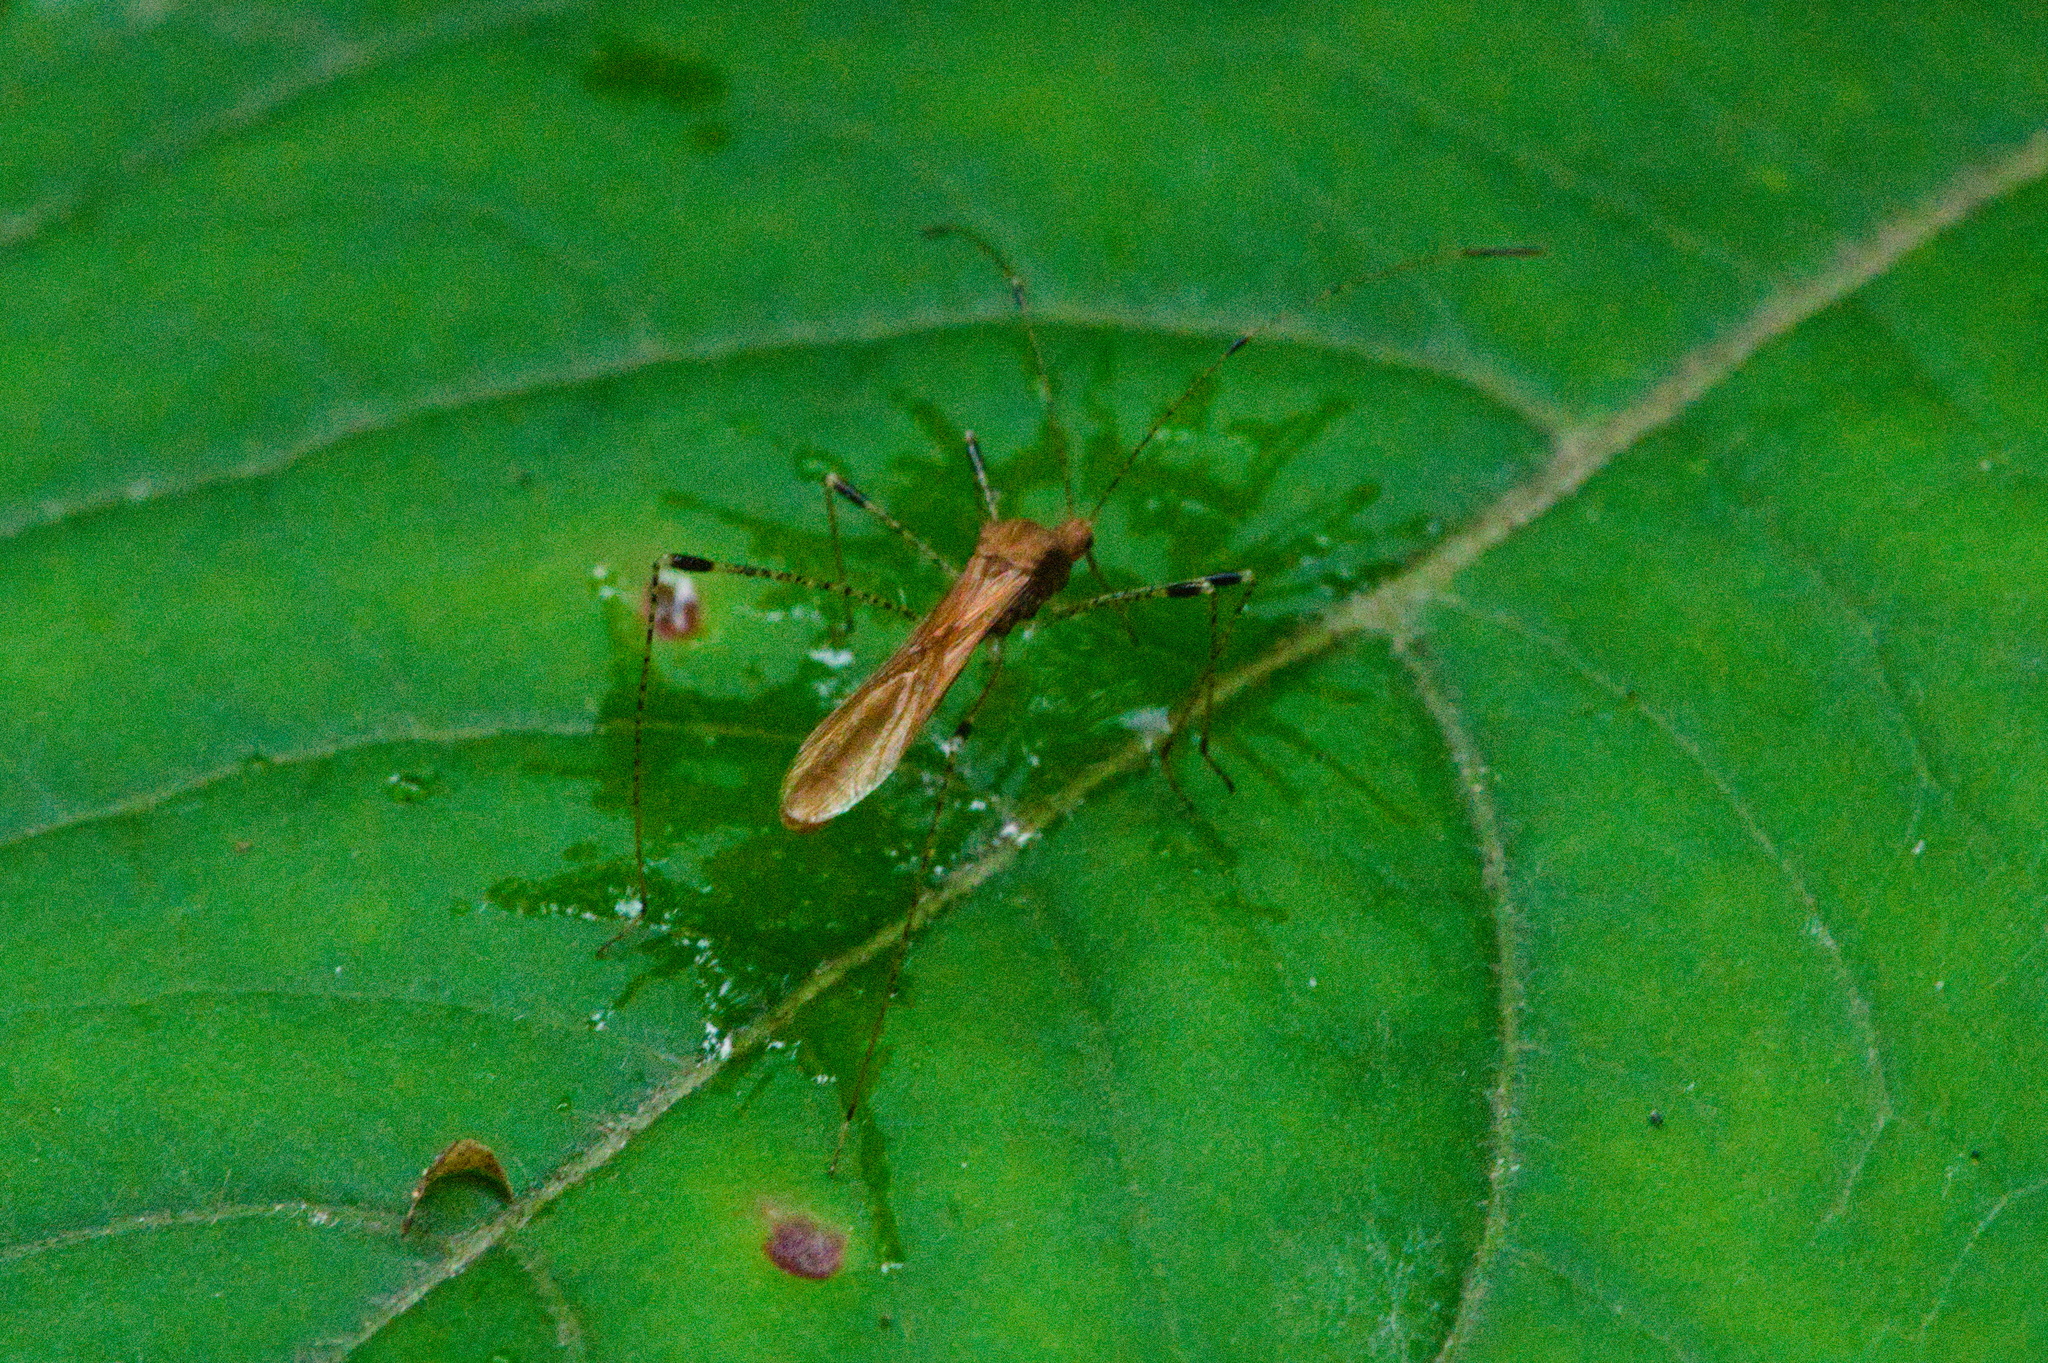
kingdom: Animalia
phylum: Arthropoda
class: Insecta
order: Hemiptera
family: Berytidae
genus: Metatropis
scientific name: Metatropis rufescens
